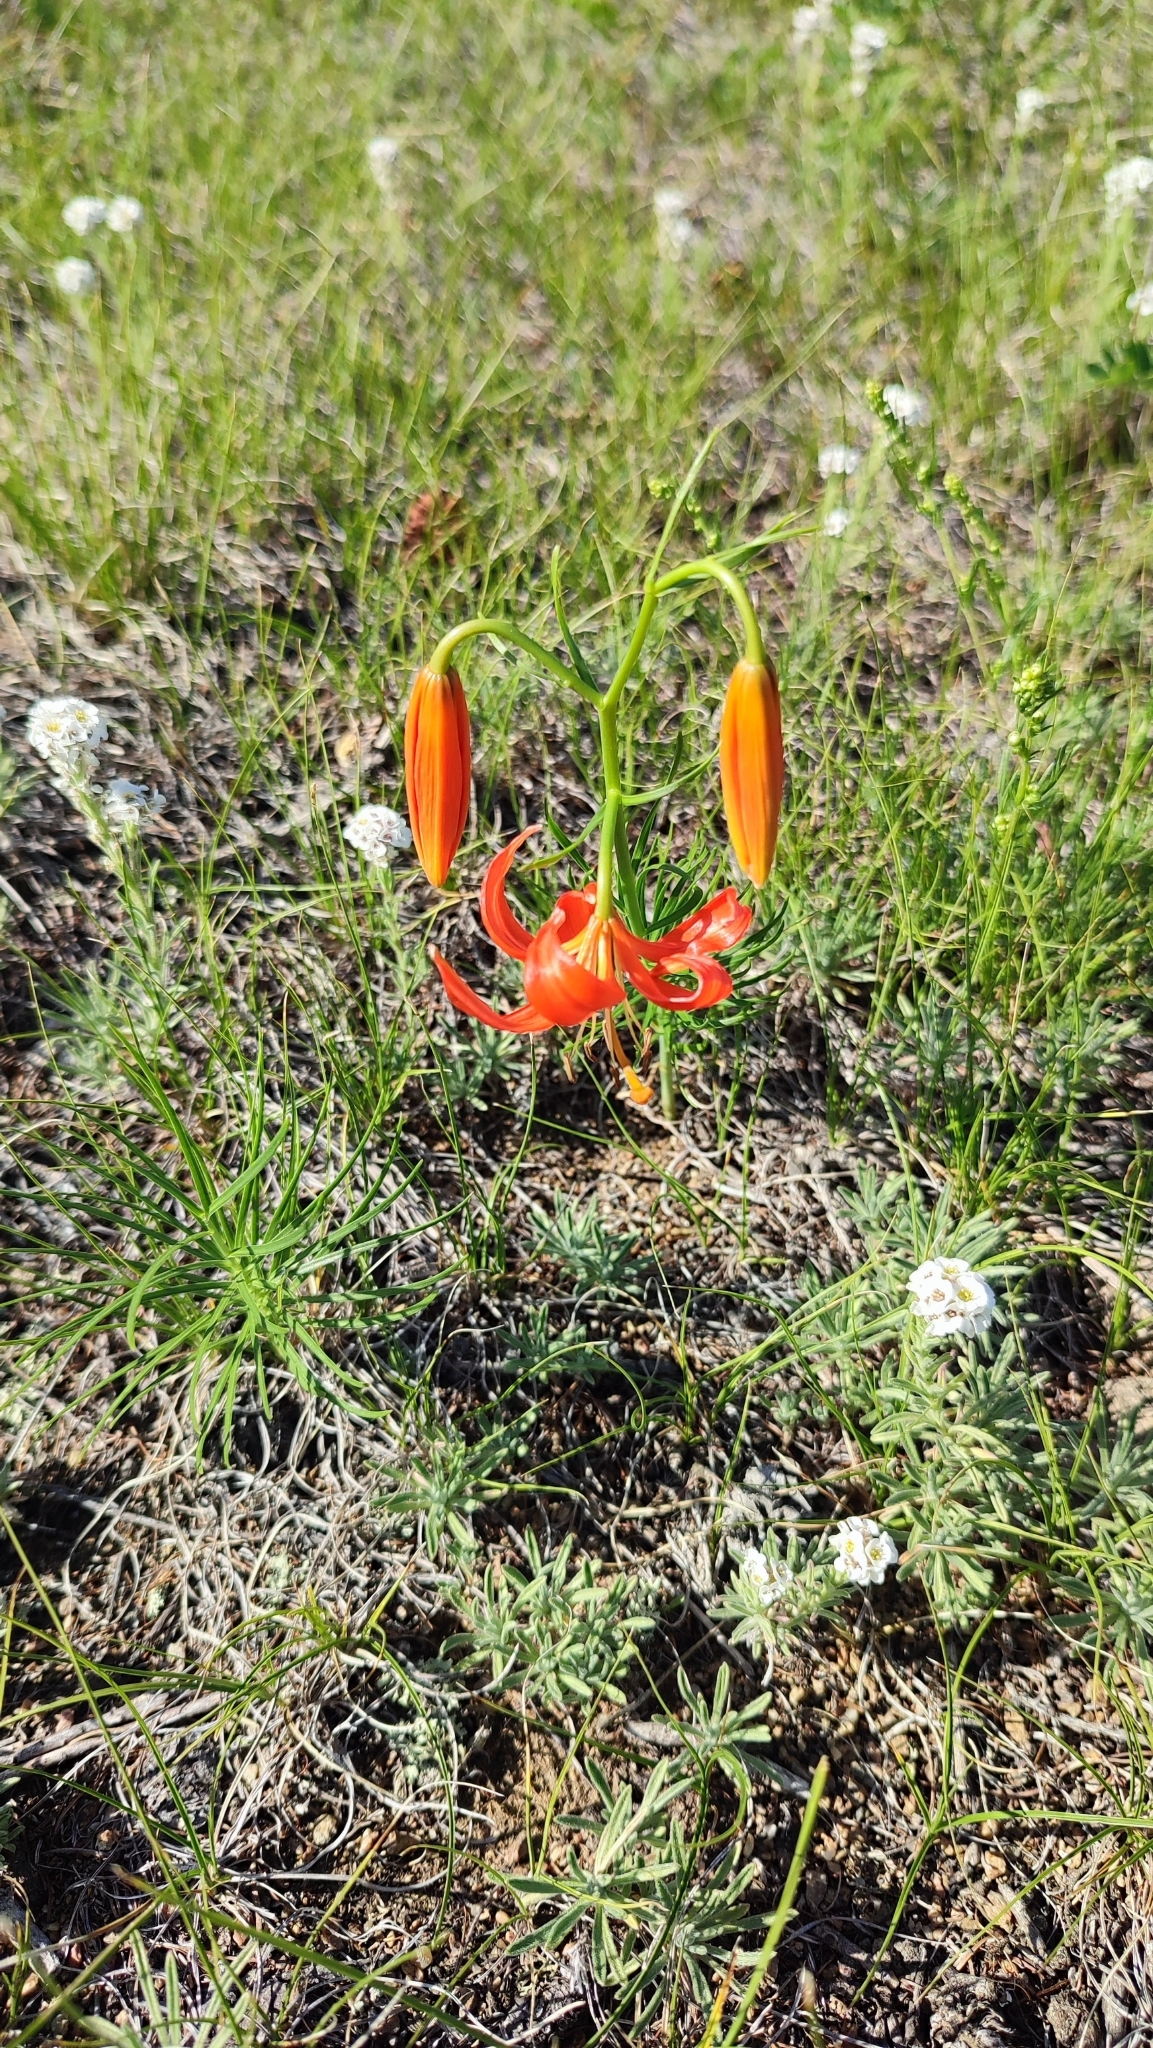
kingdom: Plantae
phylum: Tracheophyta
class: Liliopsida
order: Liliales
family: Liliaceae
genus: Lilium
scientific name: Lilium pumilum
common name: Coral lily
